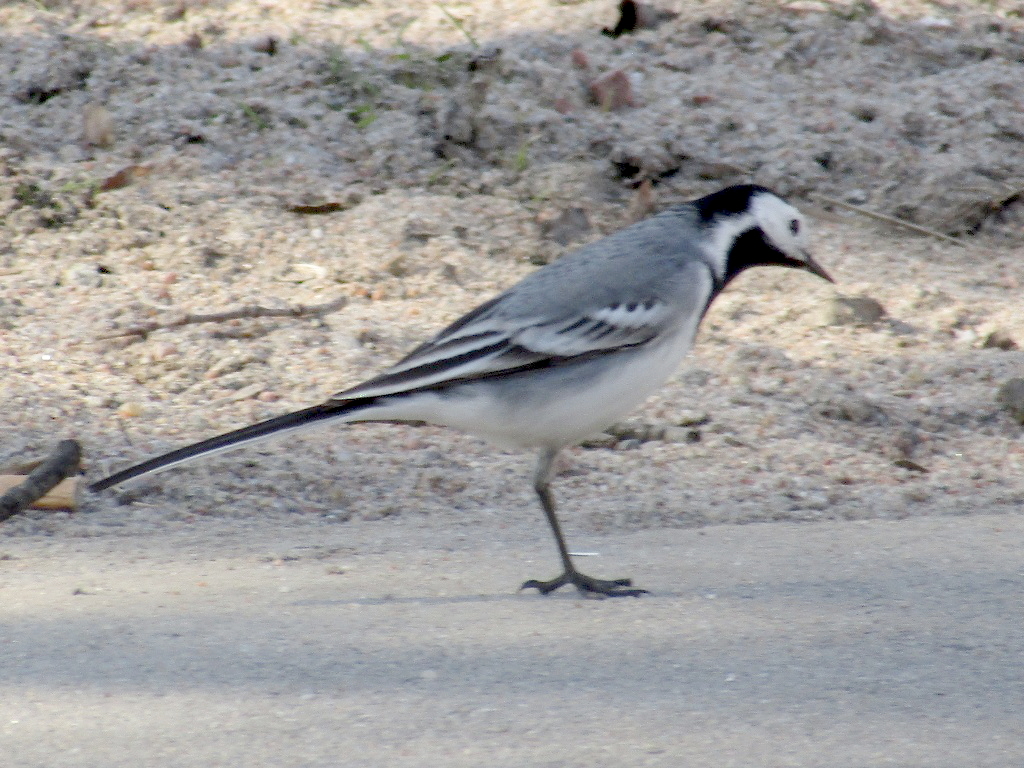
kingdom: Animalia
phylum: Chordata
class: Aves
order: Passeriformes
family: Motacillidae
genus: Motacilla
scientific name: Motacilla alba
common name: White wagtail
